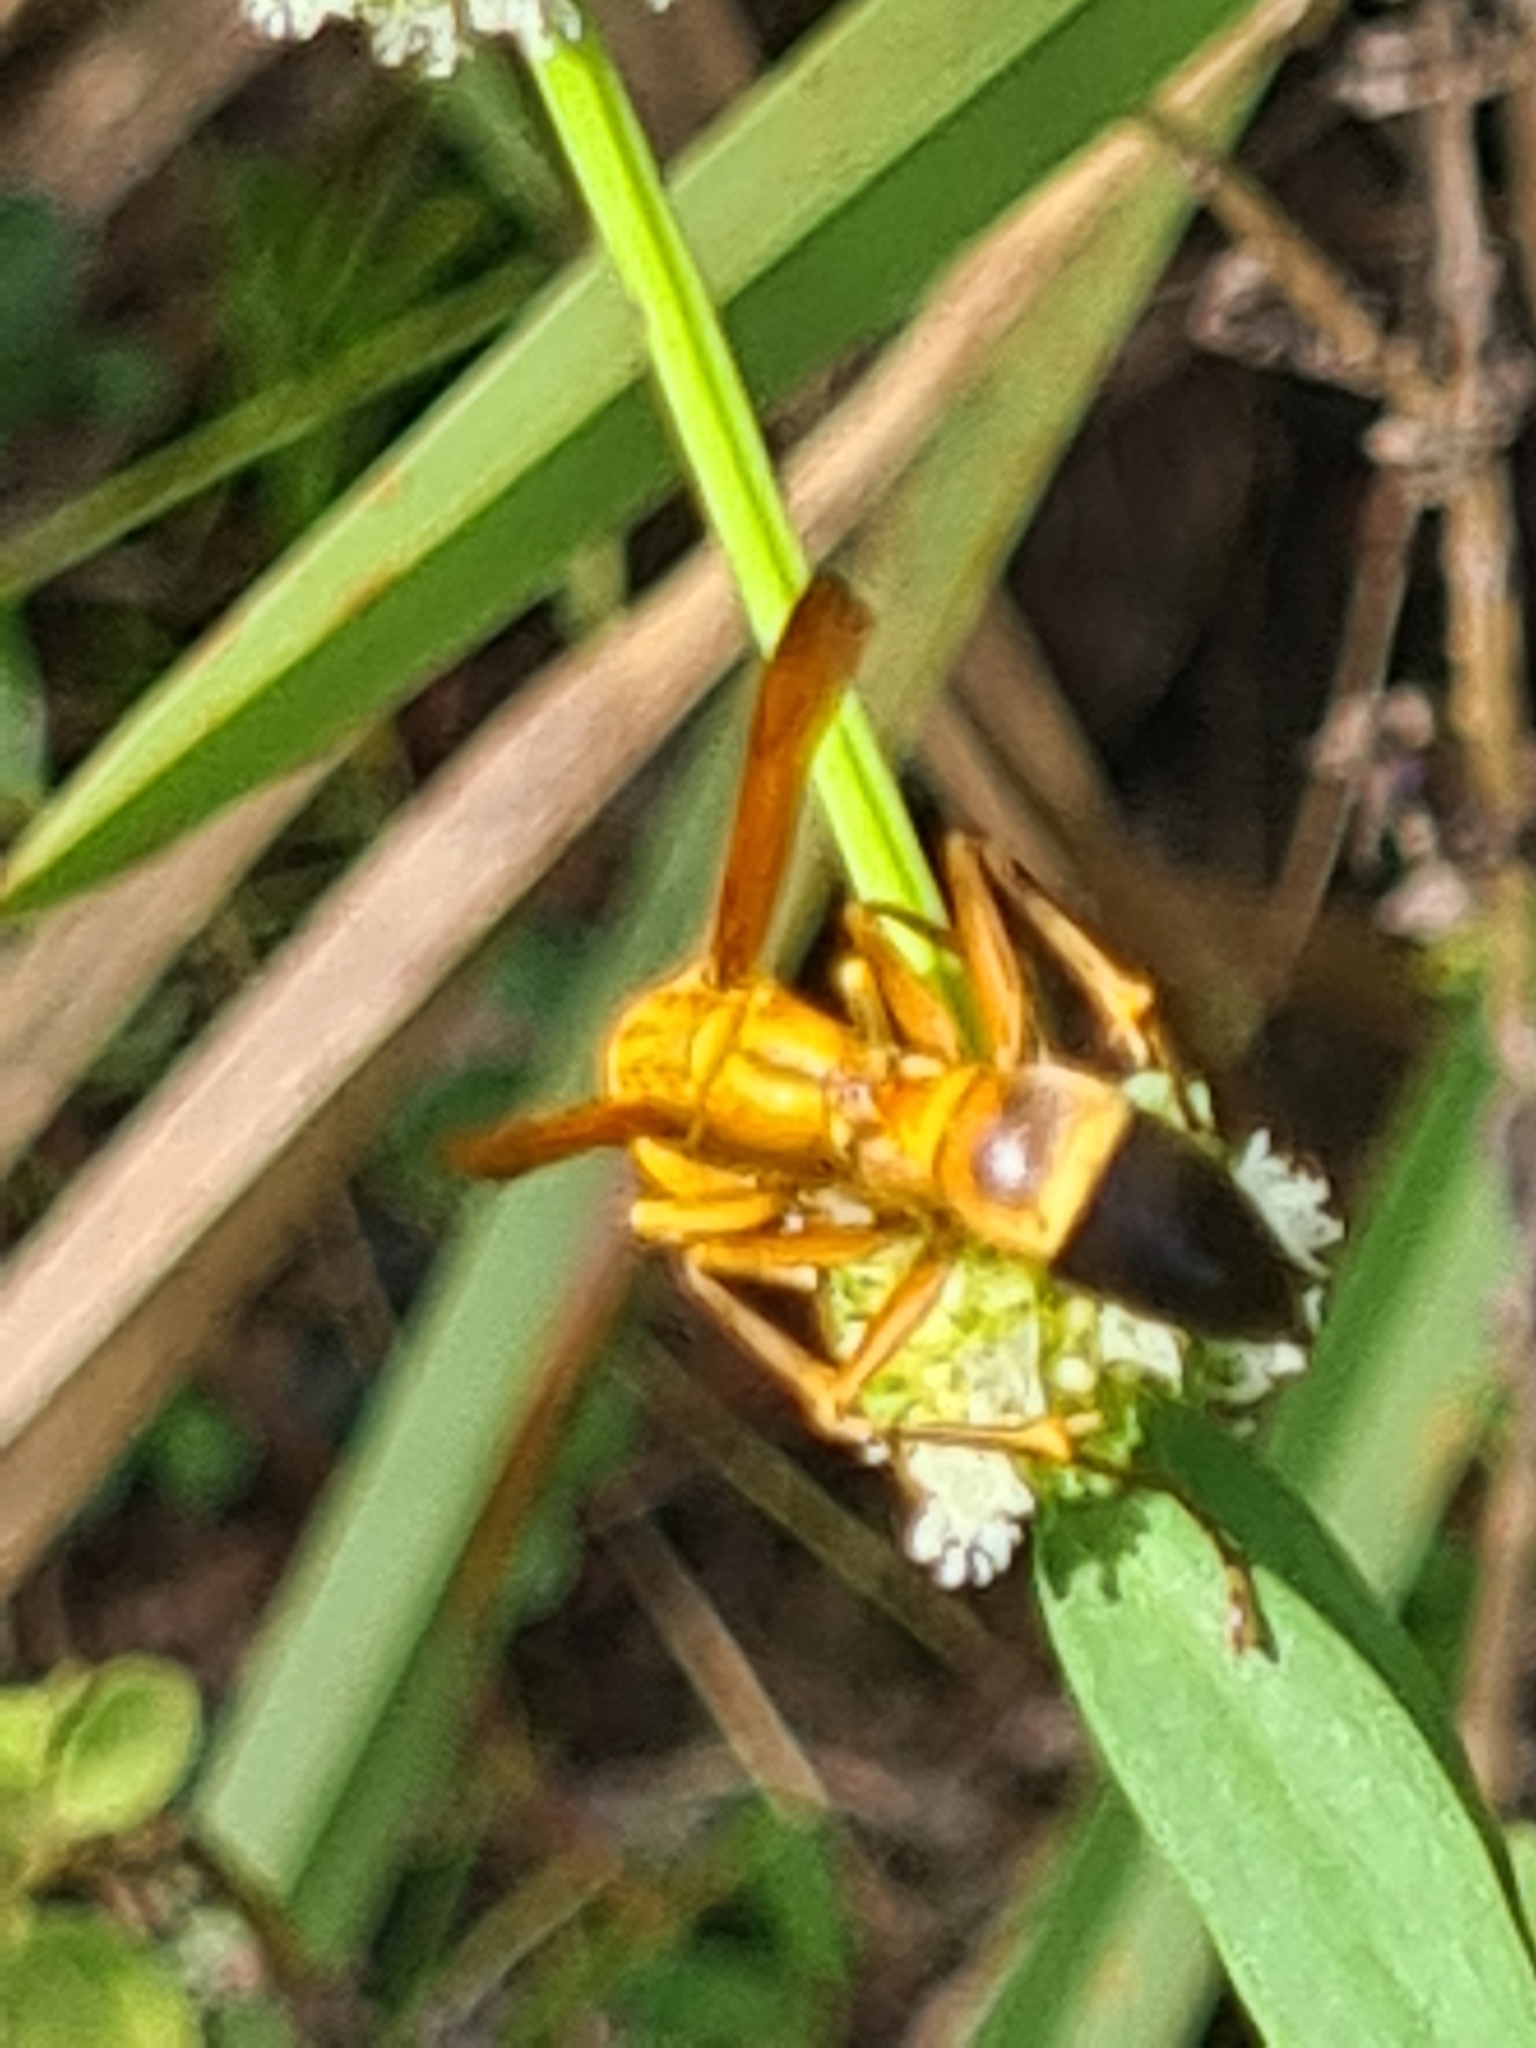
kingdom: Animalia
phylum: Arthropoda
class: Insecta
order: Hymenoptera
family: Eumenidae
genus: Polistes
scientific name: Polistes testaceicolor
